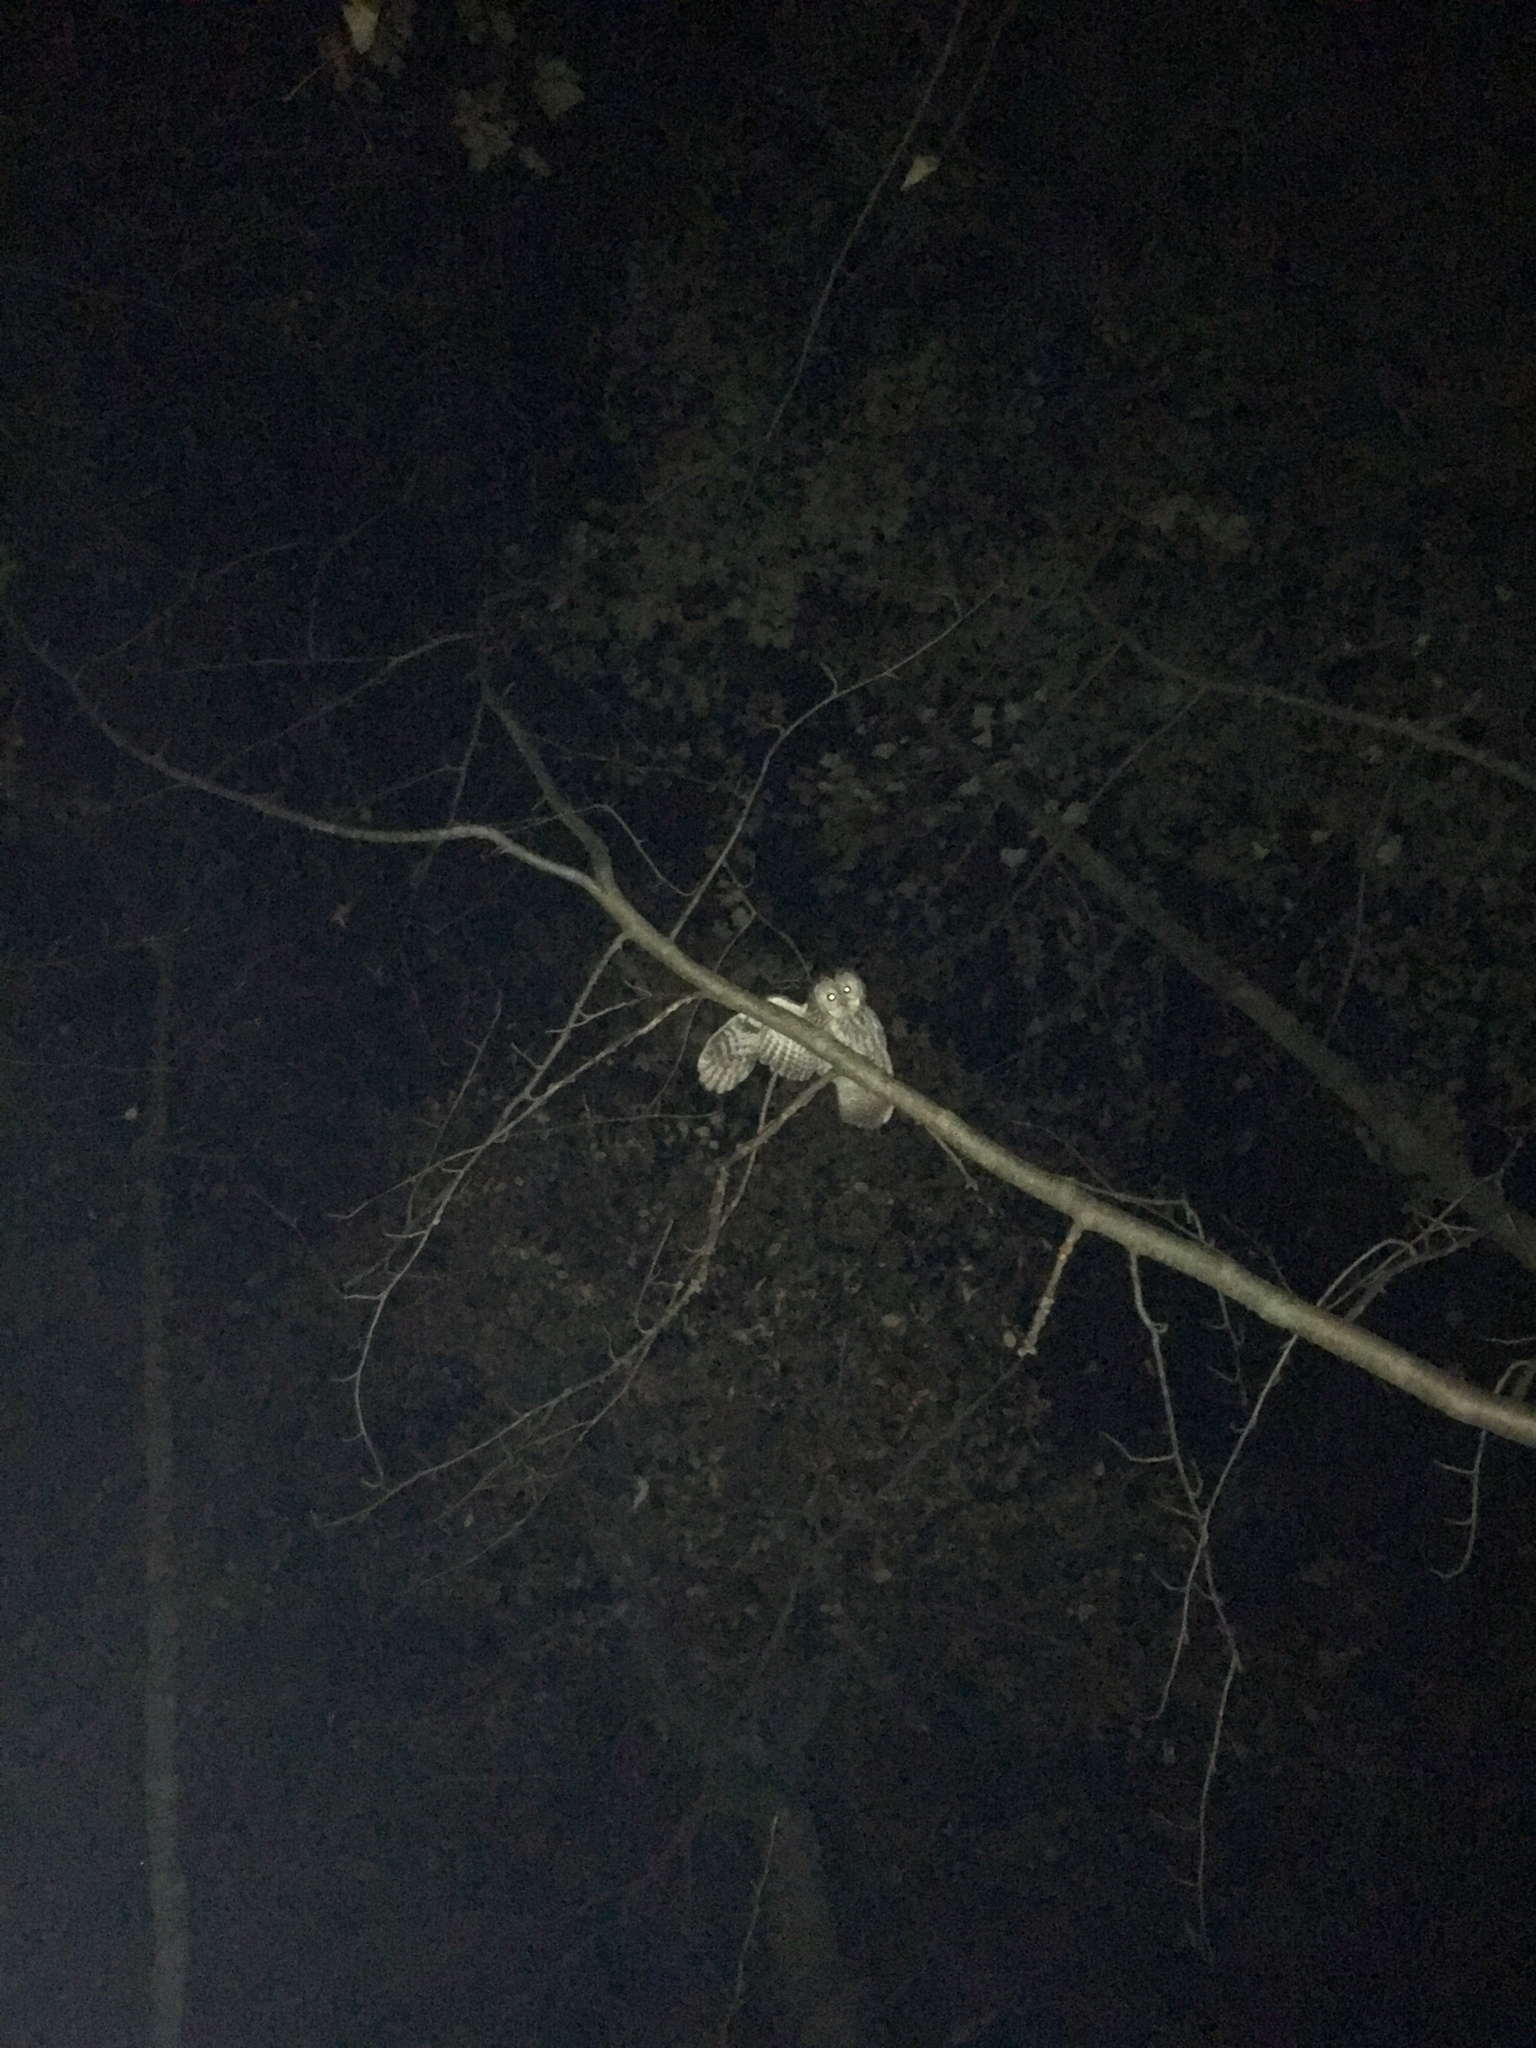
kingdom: Animalia
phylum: Chordata
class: Aves
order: Strigiformes
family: Strigidae
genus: Strix
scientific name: Strix aluco
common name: Tawny owl
